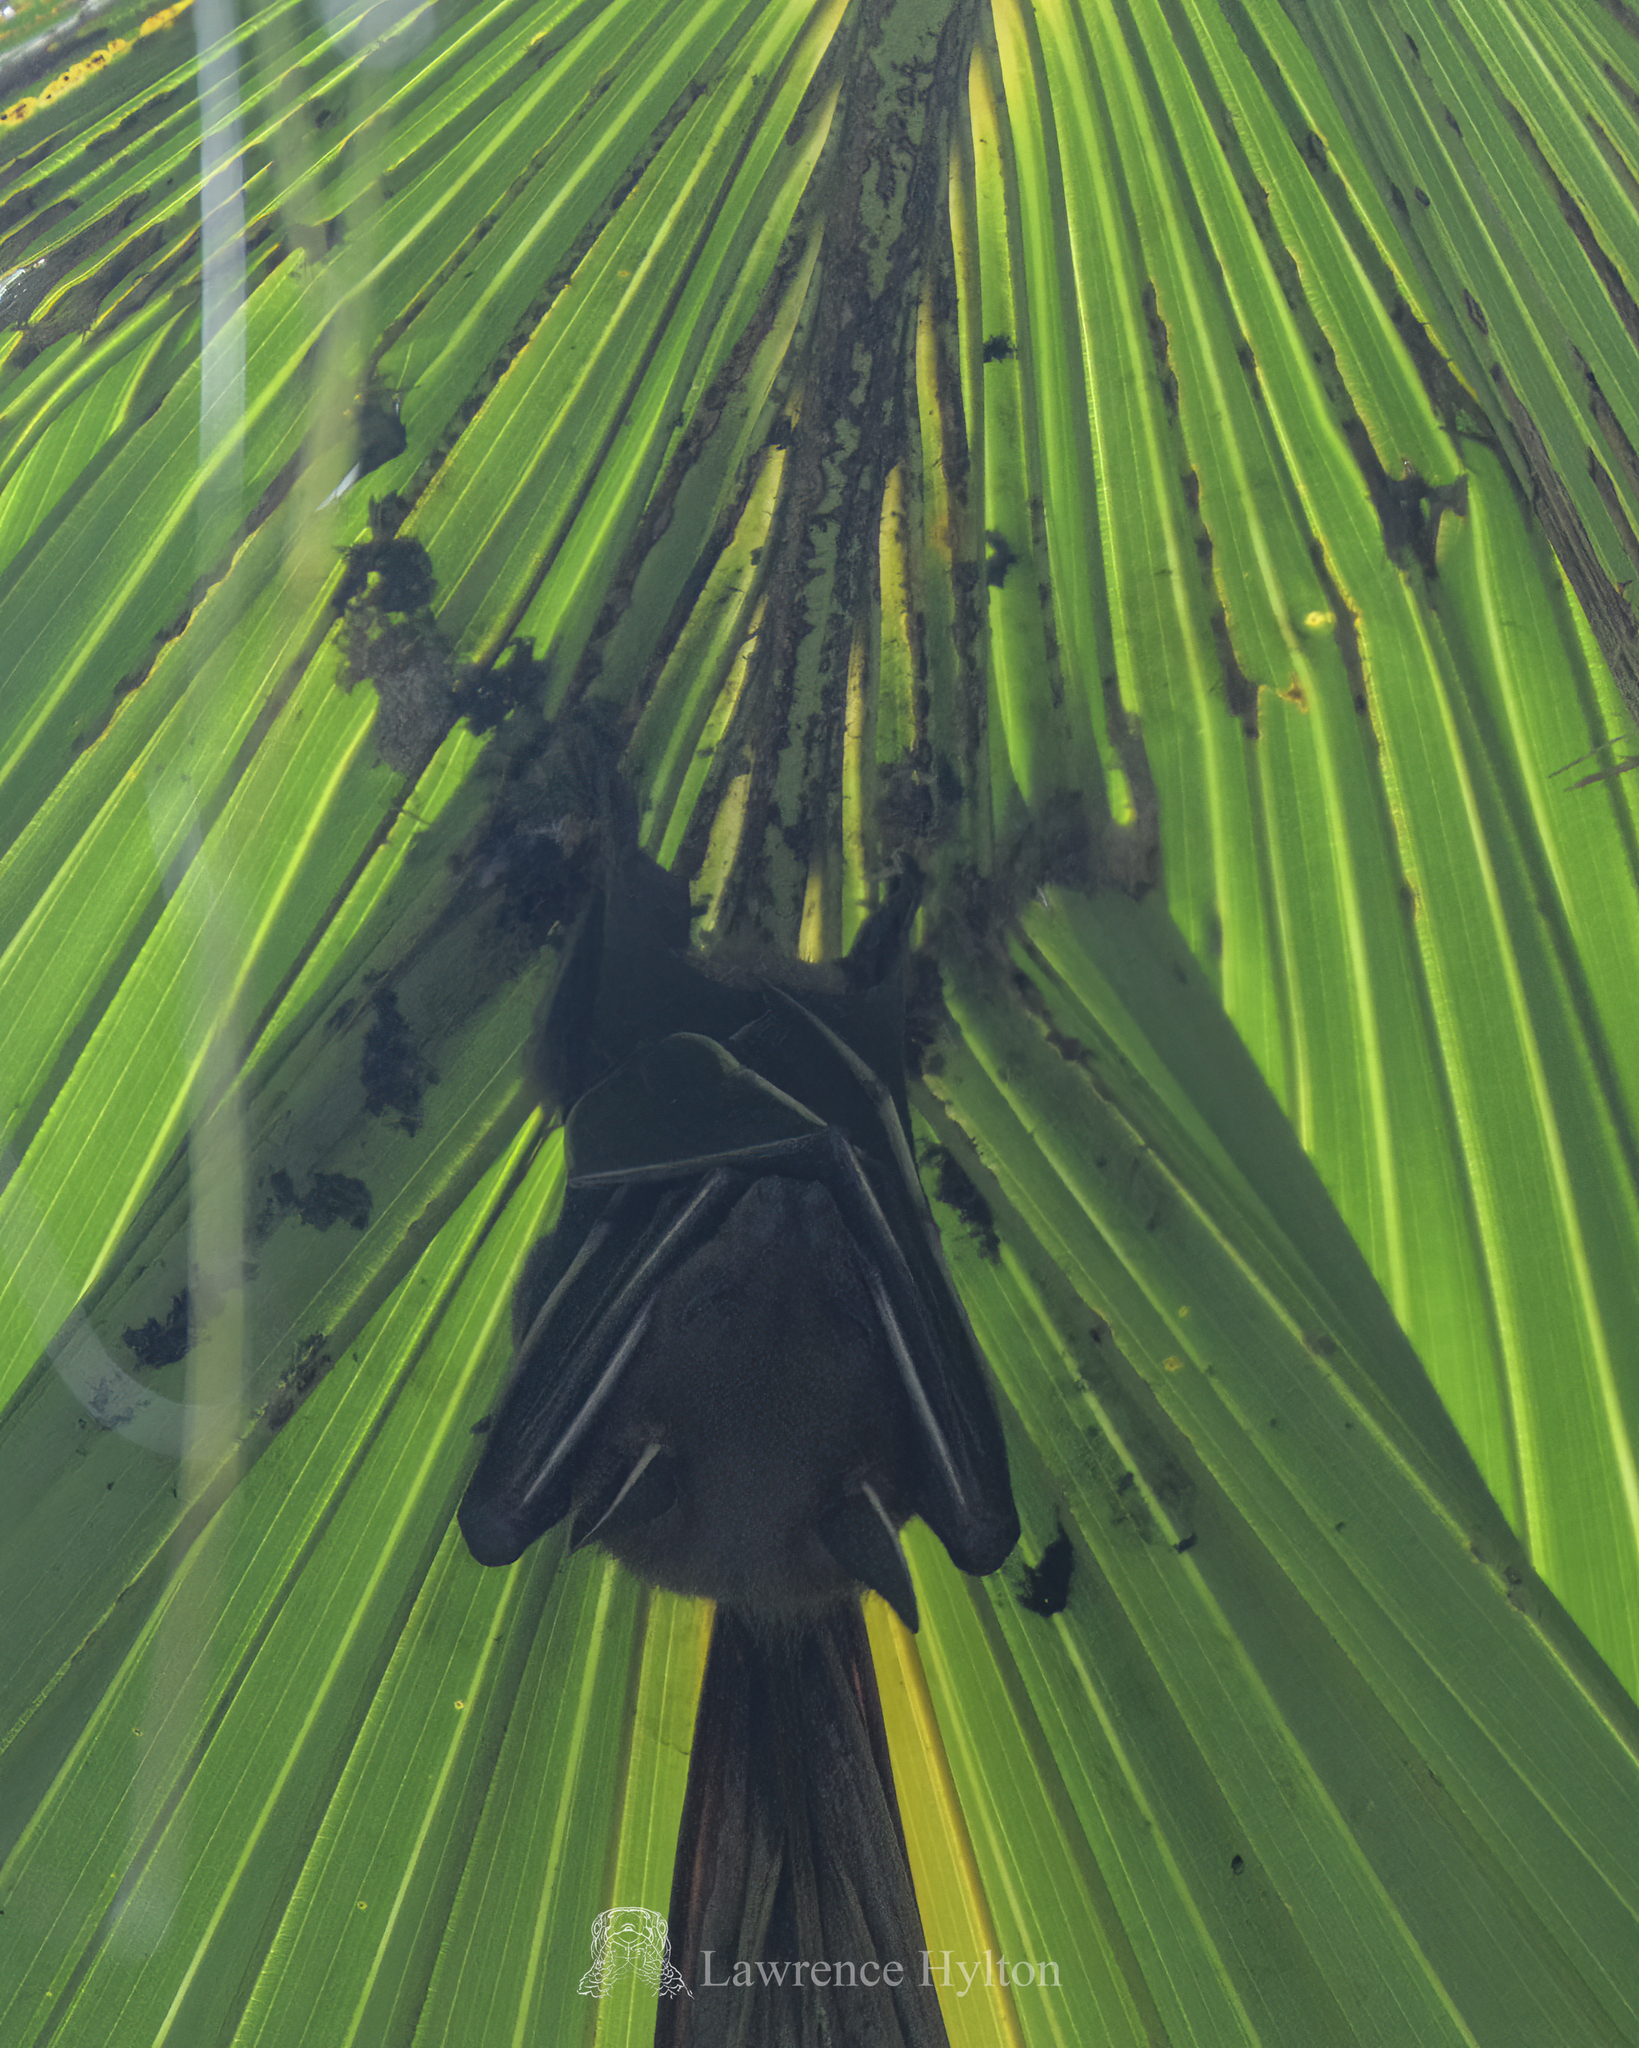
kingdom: Animalia
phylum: Chordata
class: Mammalia
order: Chiroptera
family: Pteropodidae
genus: Cynopterus
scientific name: Cynopterus sphinx
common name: Greater short-nosed fruit bat
